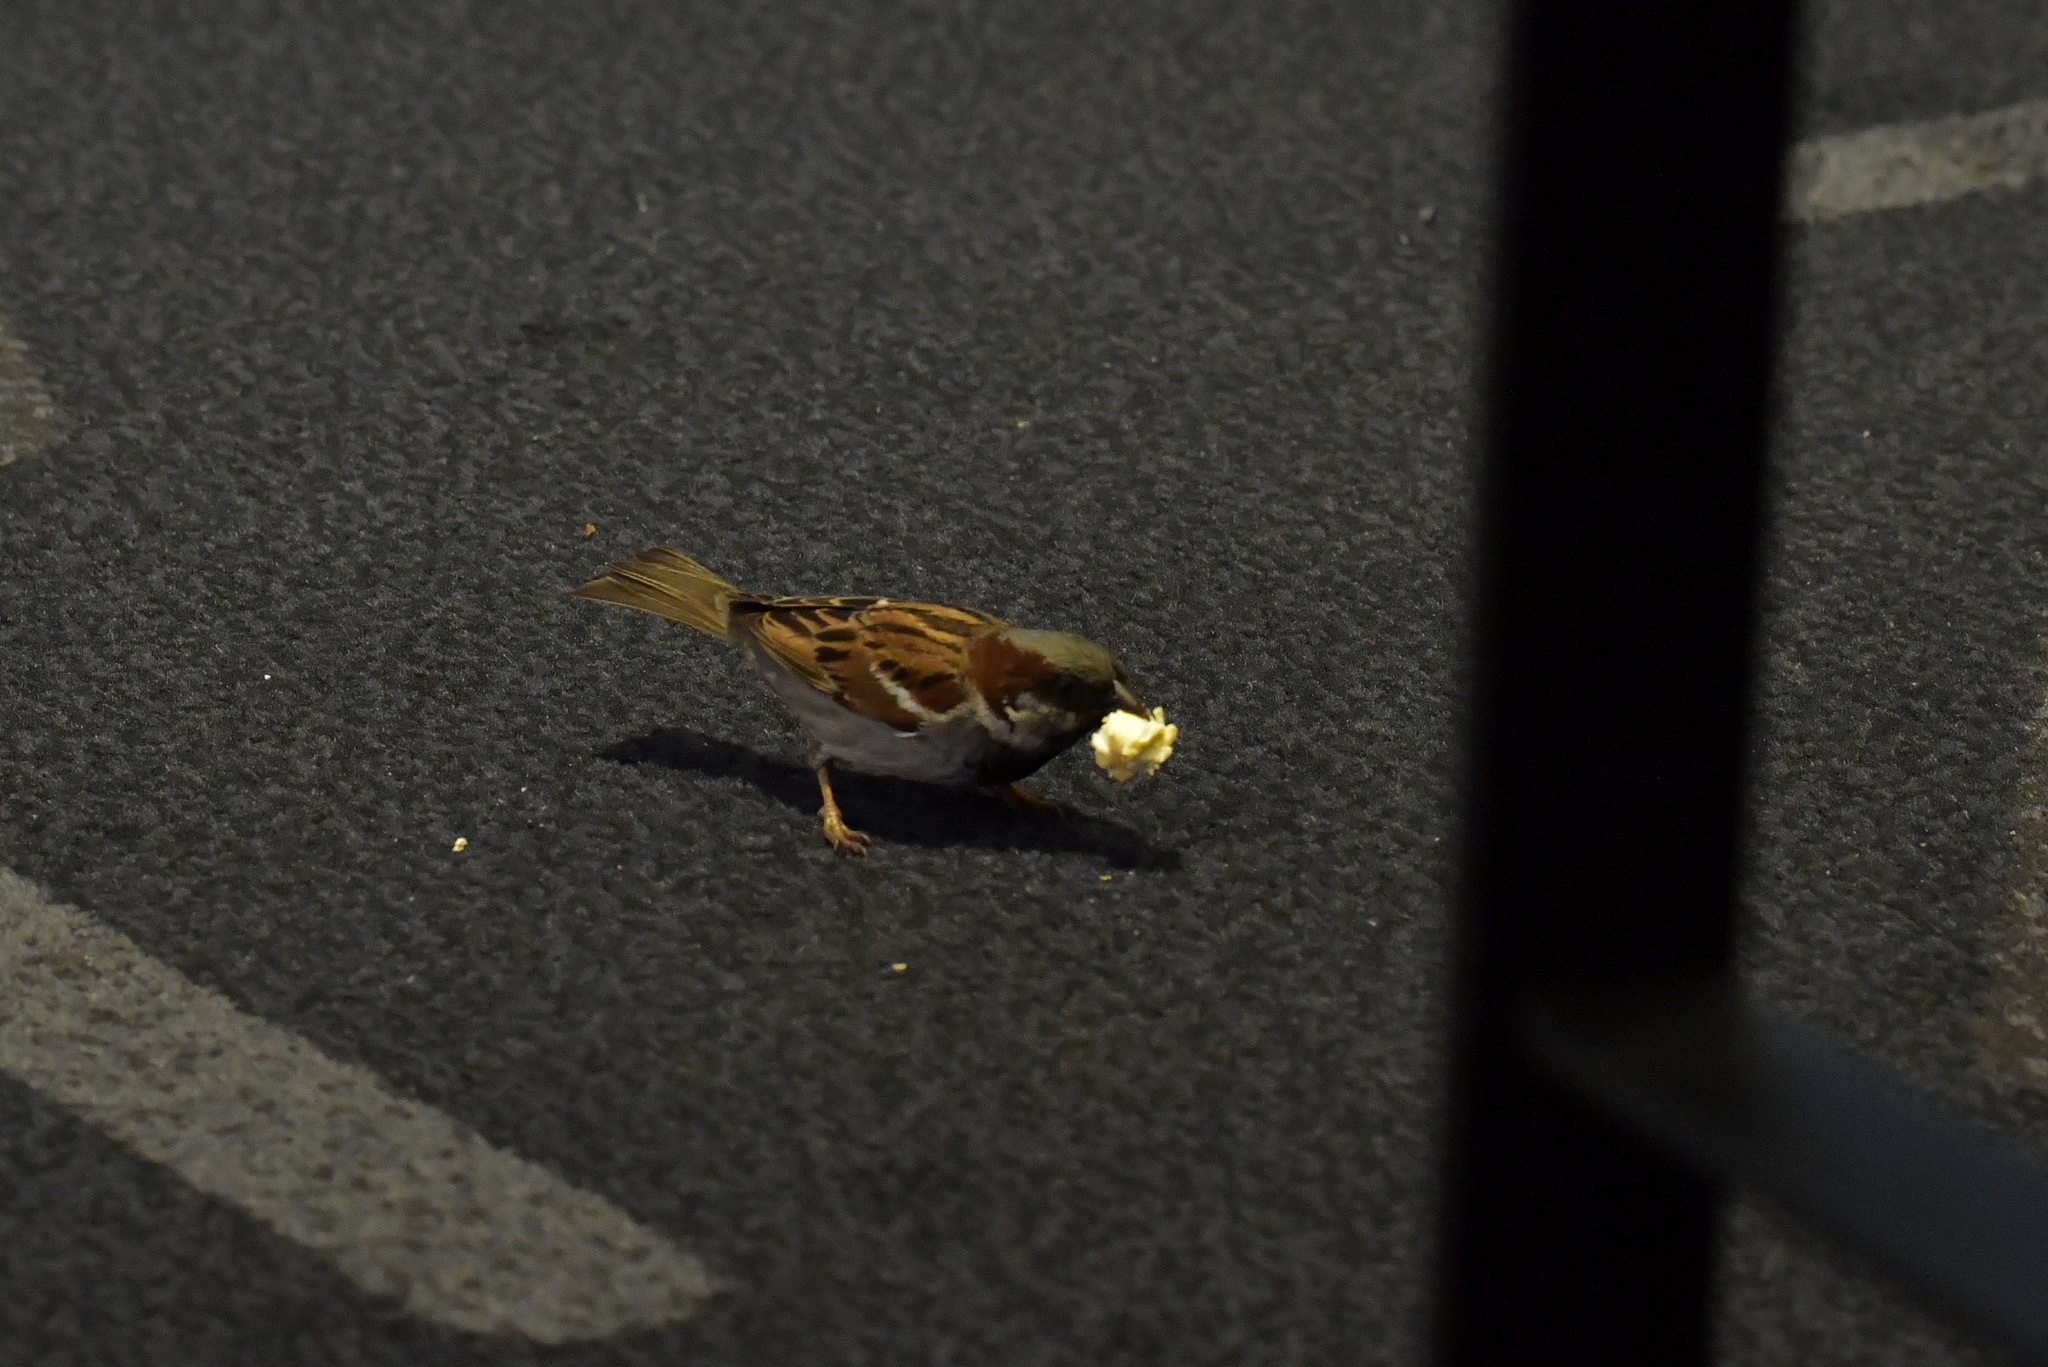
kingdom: Animalia
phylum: Chordata
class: Aves
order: Passeriformes
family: Passeridae
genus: Passer
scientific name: Passer domesticus
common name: House sparrow
